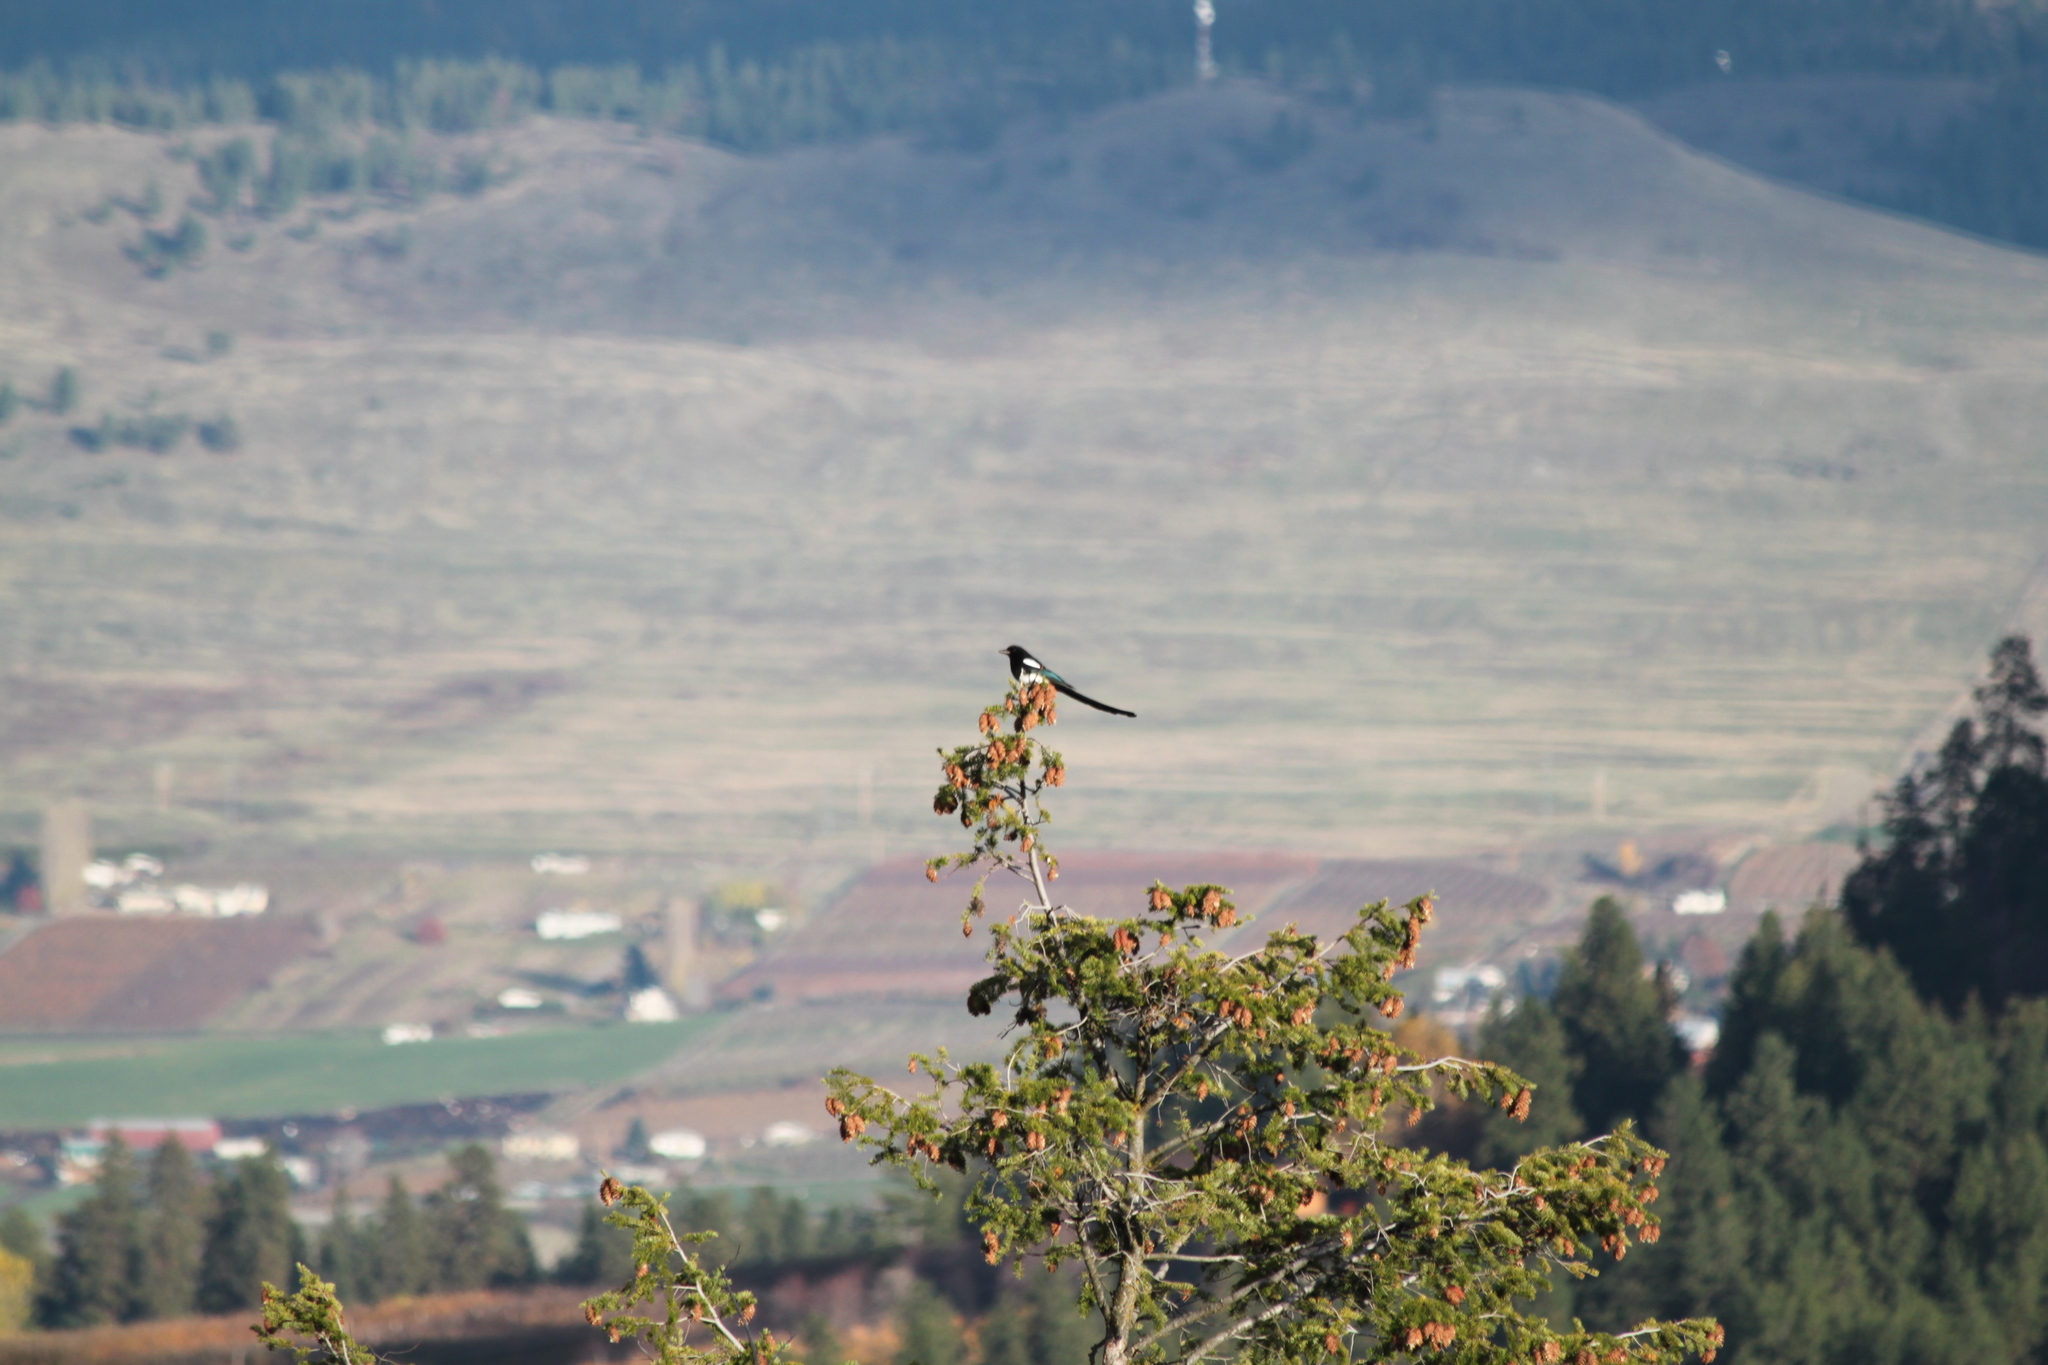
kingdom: Animalia
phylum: Chordata
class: Aves
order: Passeriformes
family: Corvidae
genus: Pica
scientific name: Pica hudsonia
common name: Black-billed magpie
